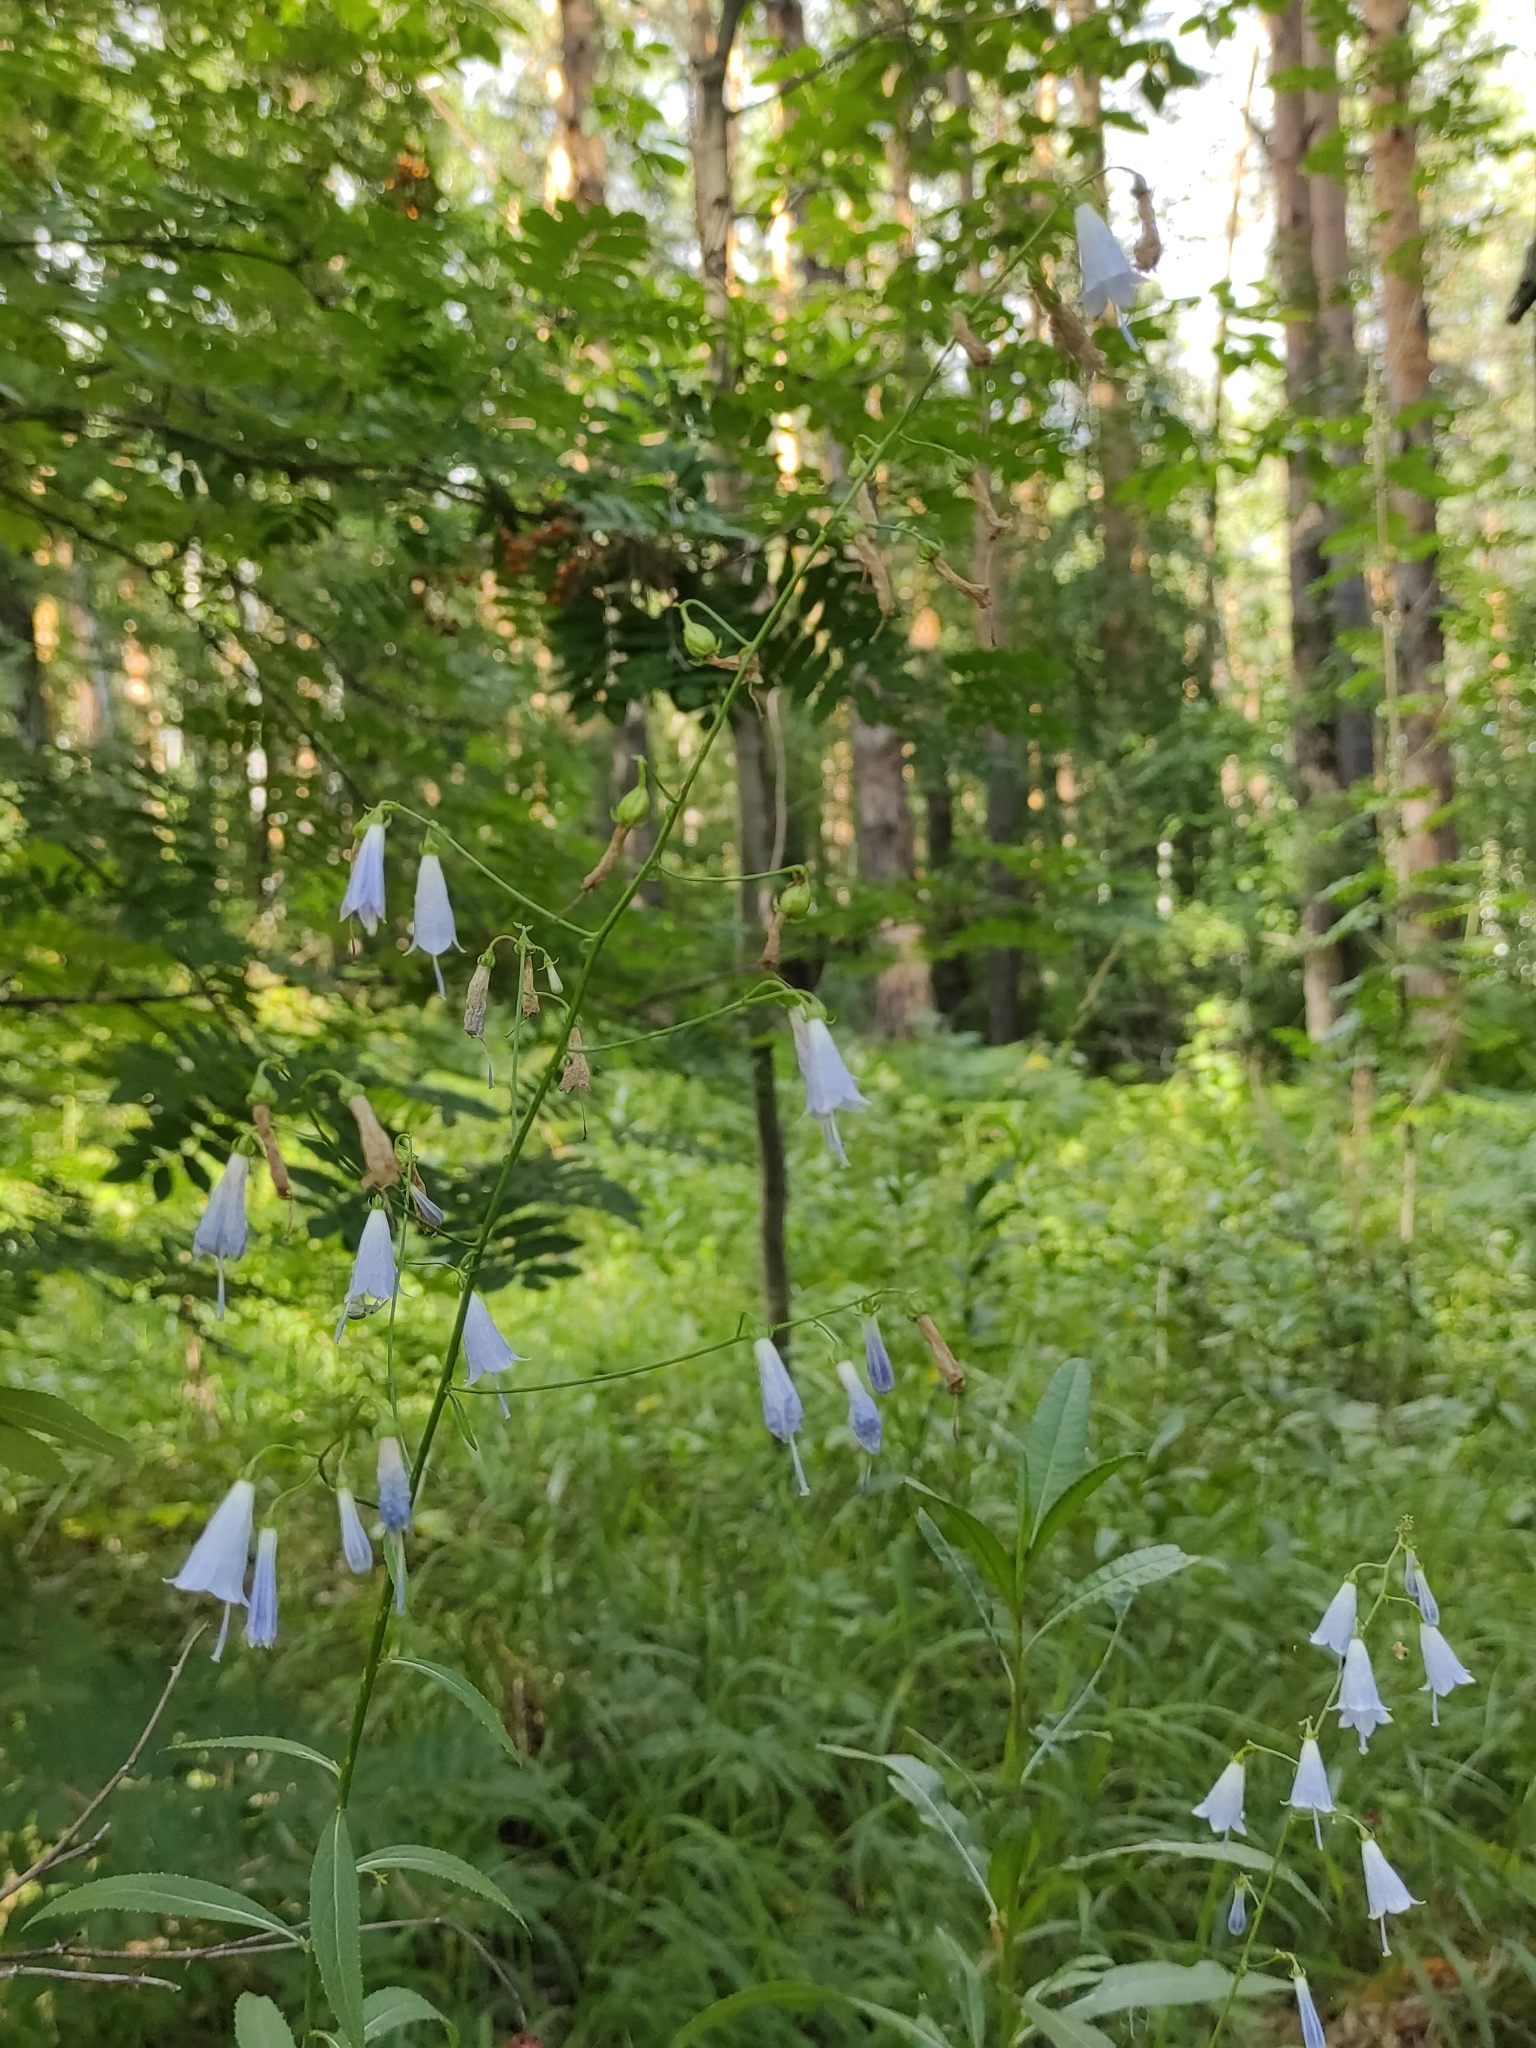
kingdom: Plantae
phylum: Tracheophyta
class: Magnoliopsida
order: Asterales
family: Campanulaceae
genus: Adenophora
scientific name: Adenophora liliifolia
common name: Lilyleaf ladybells
